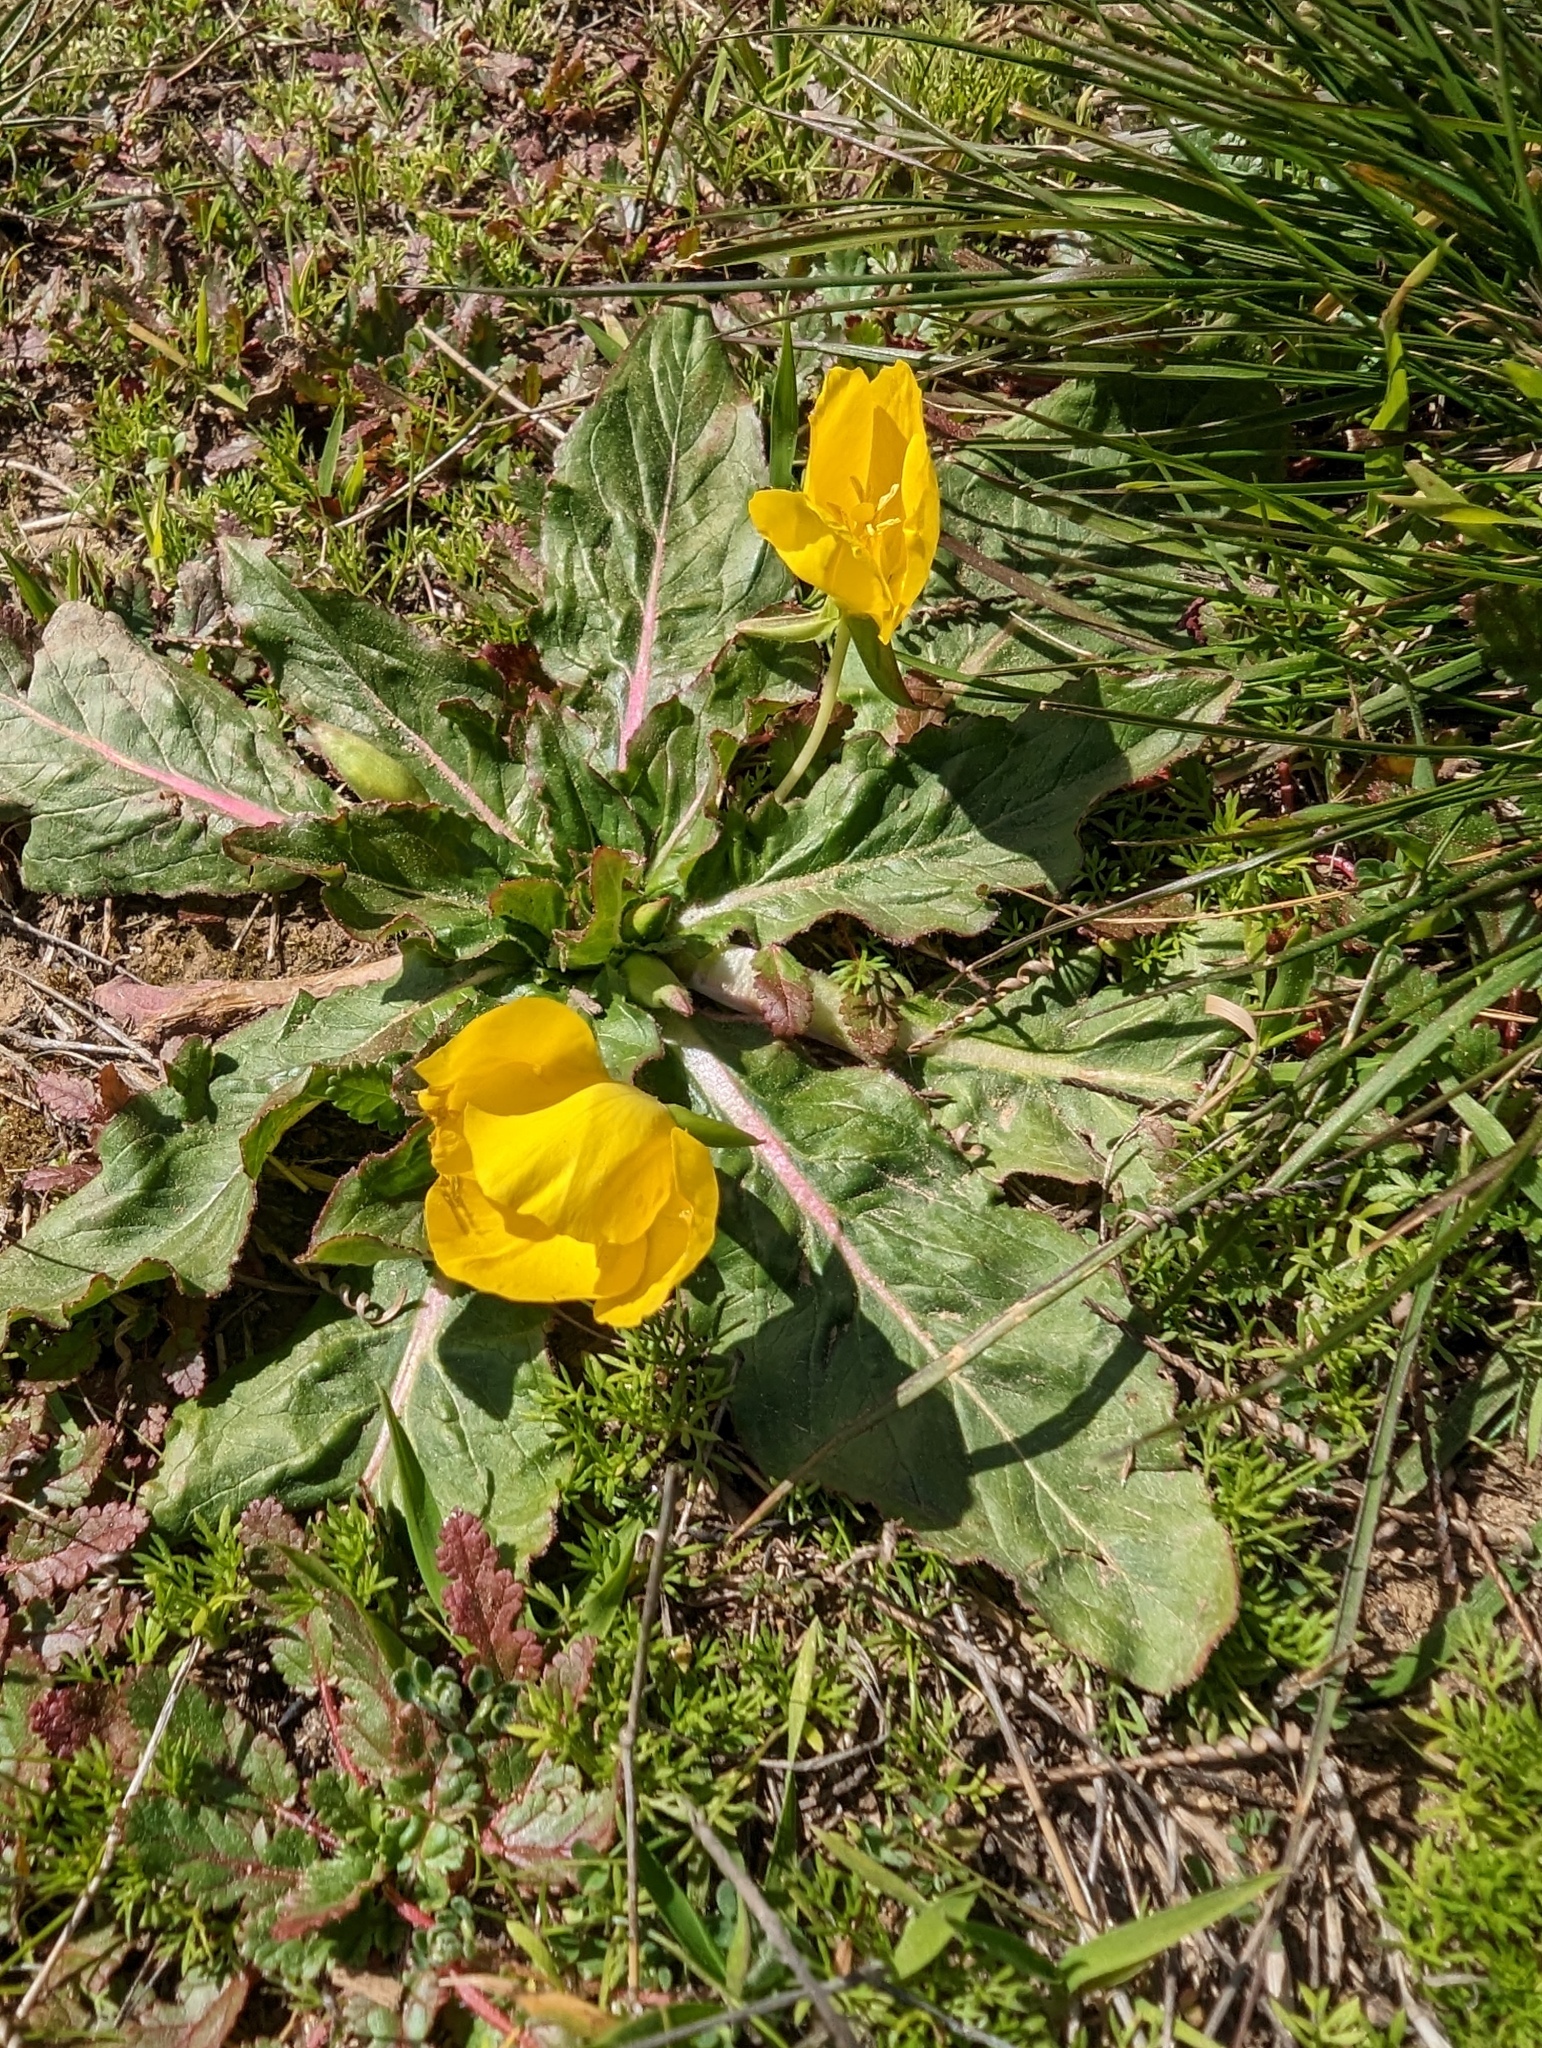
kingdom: Plantae
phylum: Tracheophyta
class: Magnoliopsida
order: Myrtales
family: Onagraceae
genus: Taraxia
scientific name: Taraxia ovata
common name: Goldeneggs
